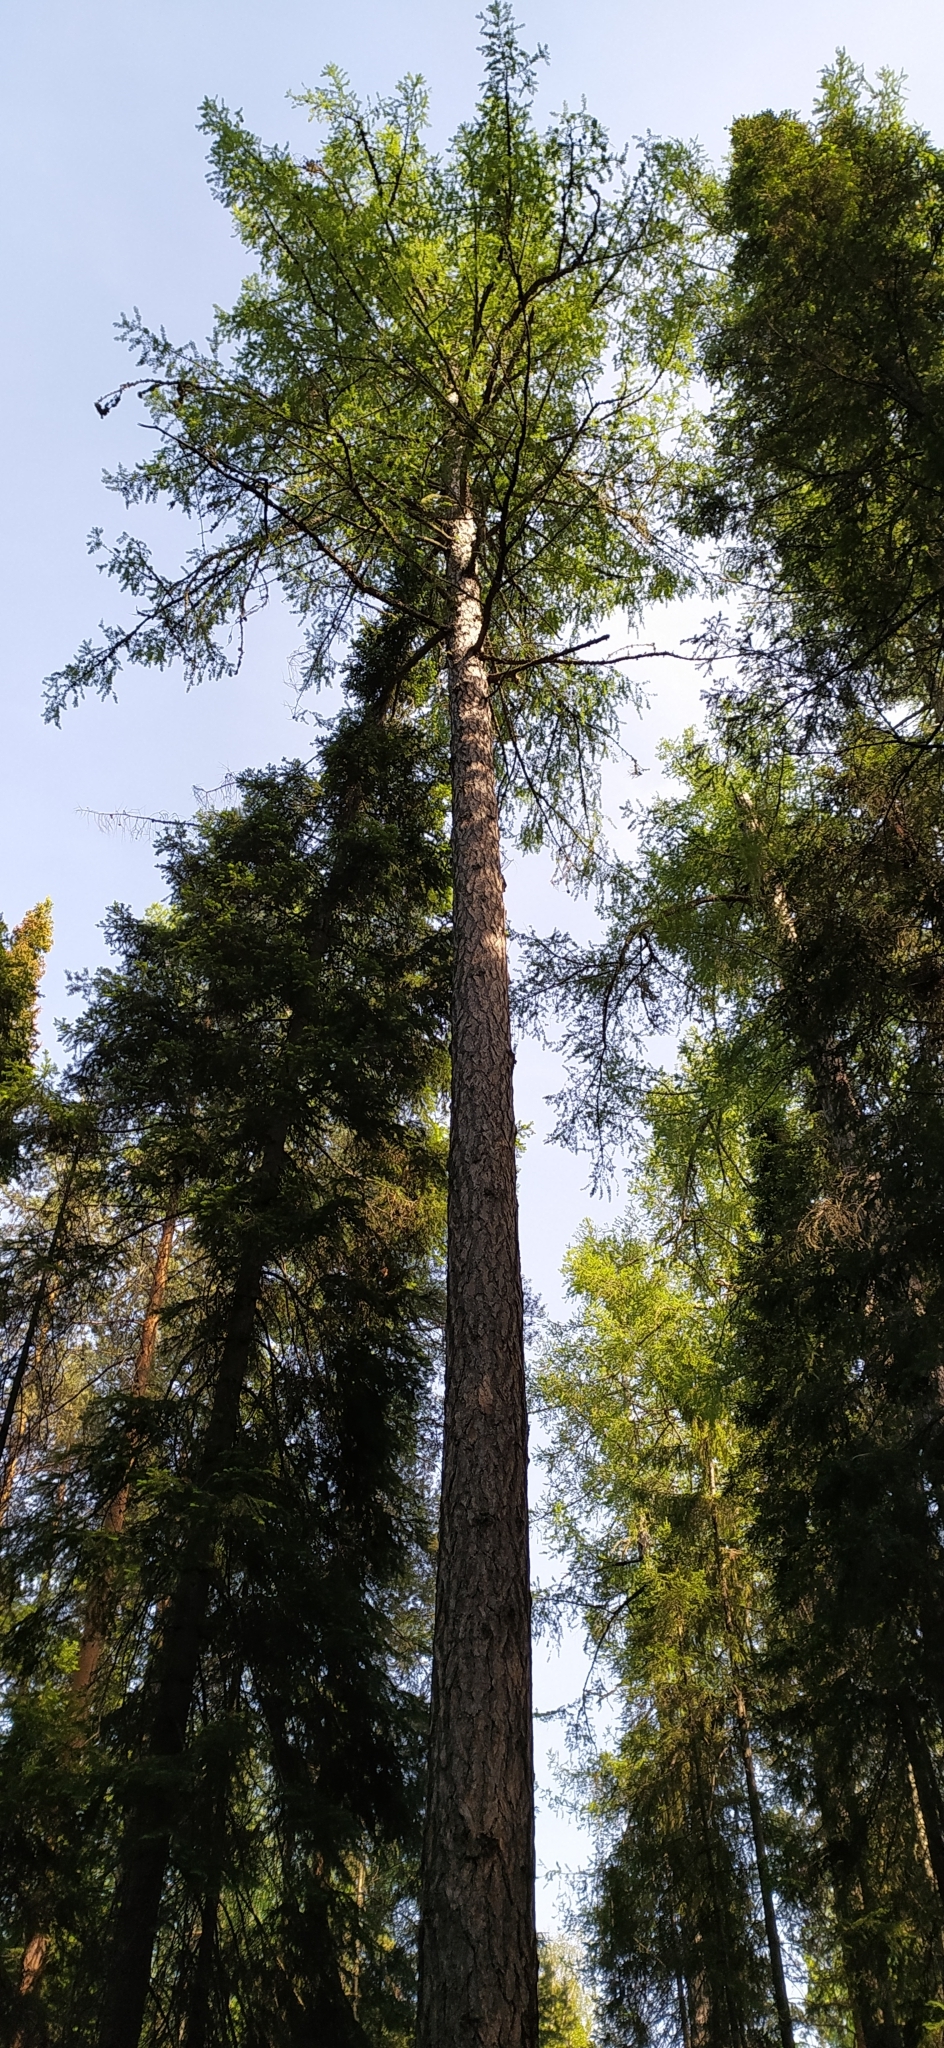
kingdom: Plantae
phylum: Tracheophyta
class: Pinopsida
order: Pinales
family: Pinaceae
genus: Larix
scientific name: Larix sibirica
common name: Siberian larch
